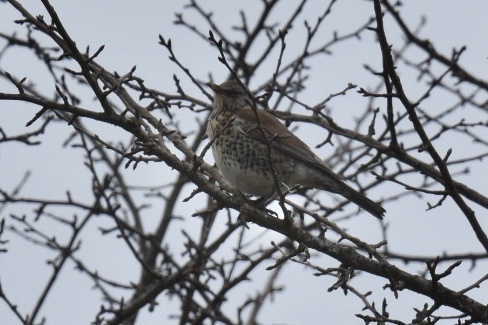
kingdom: Animalia
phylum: Chordata
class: Aves
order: Passeriformes
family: Turdidae
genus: Turdus
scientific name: Turdus pilaris
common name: Fieldfare
